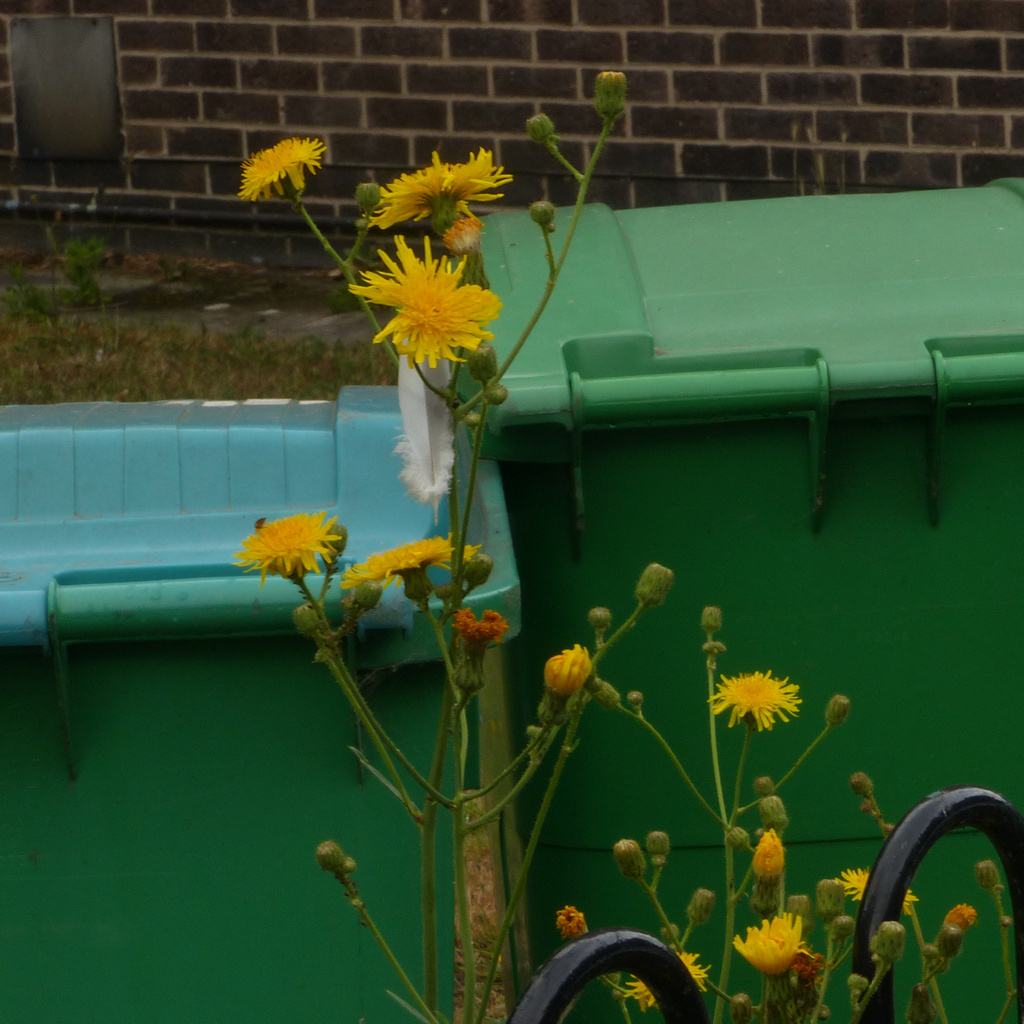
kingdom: Plantae
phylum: Tracheophyta
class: Magnoliopsida
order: Asterales
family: Asteraceae
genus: Sonchus
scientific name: Sonchus arvensis
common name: Perennial sow-thistle
